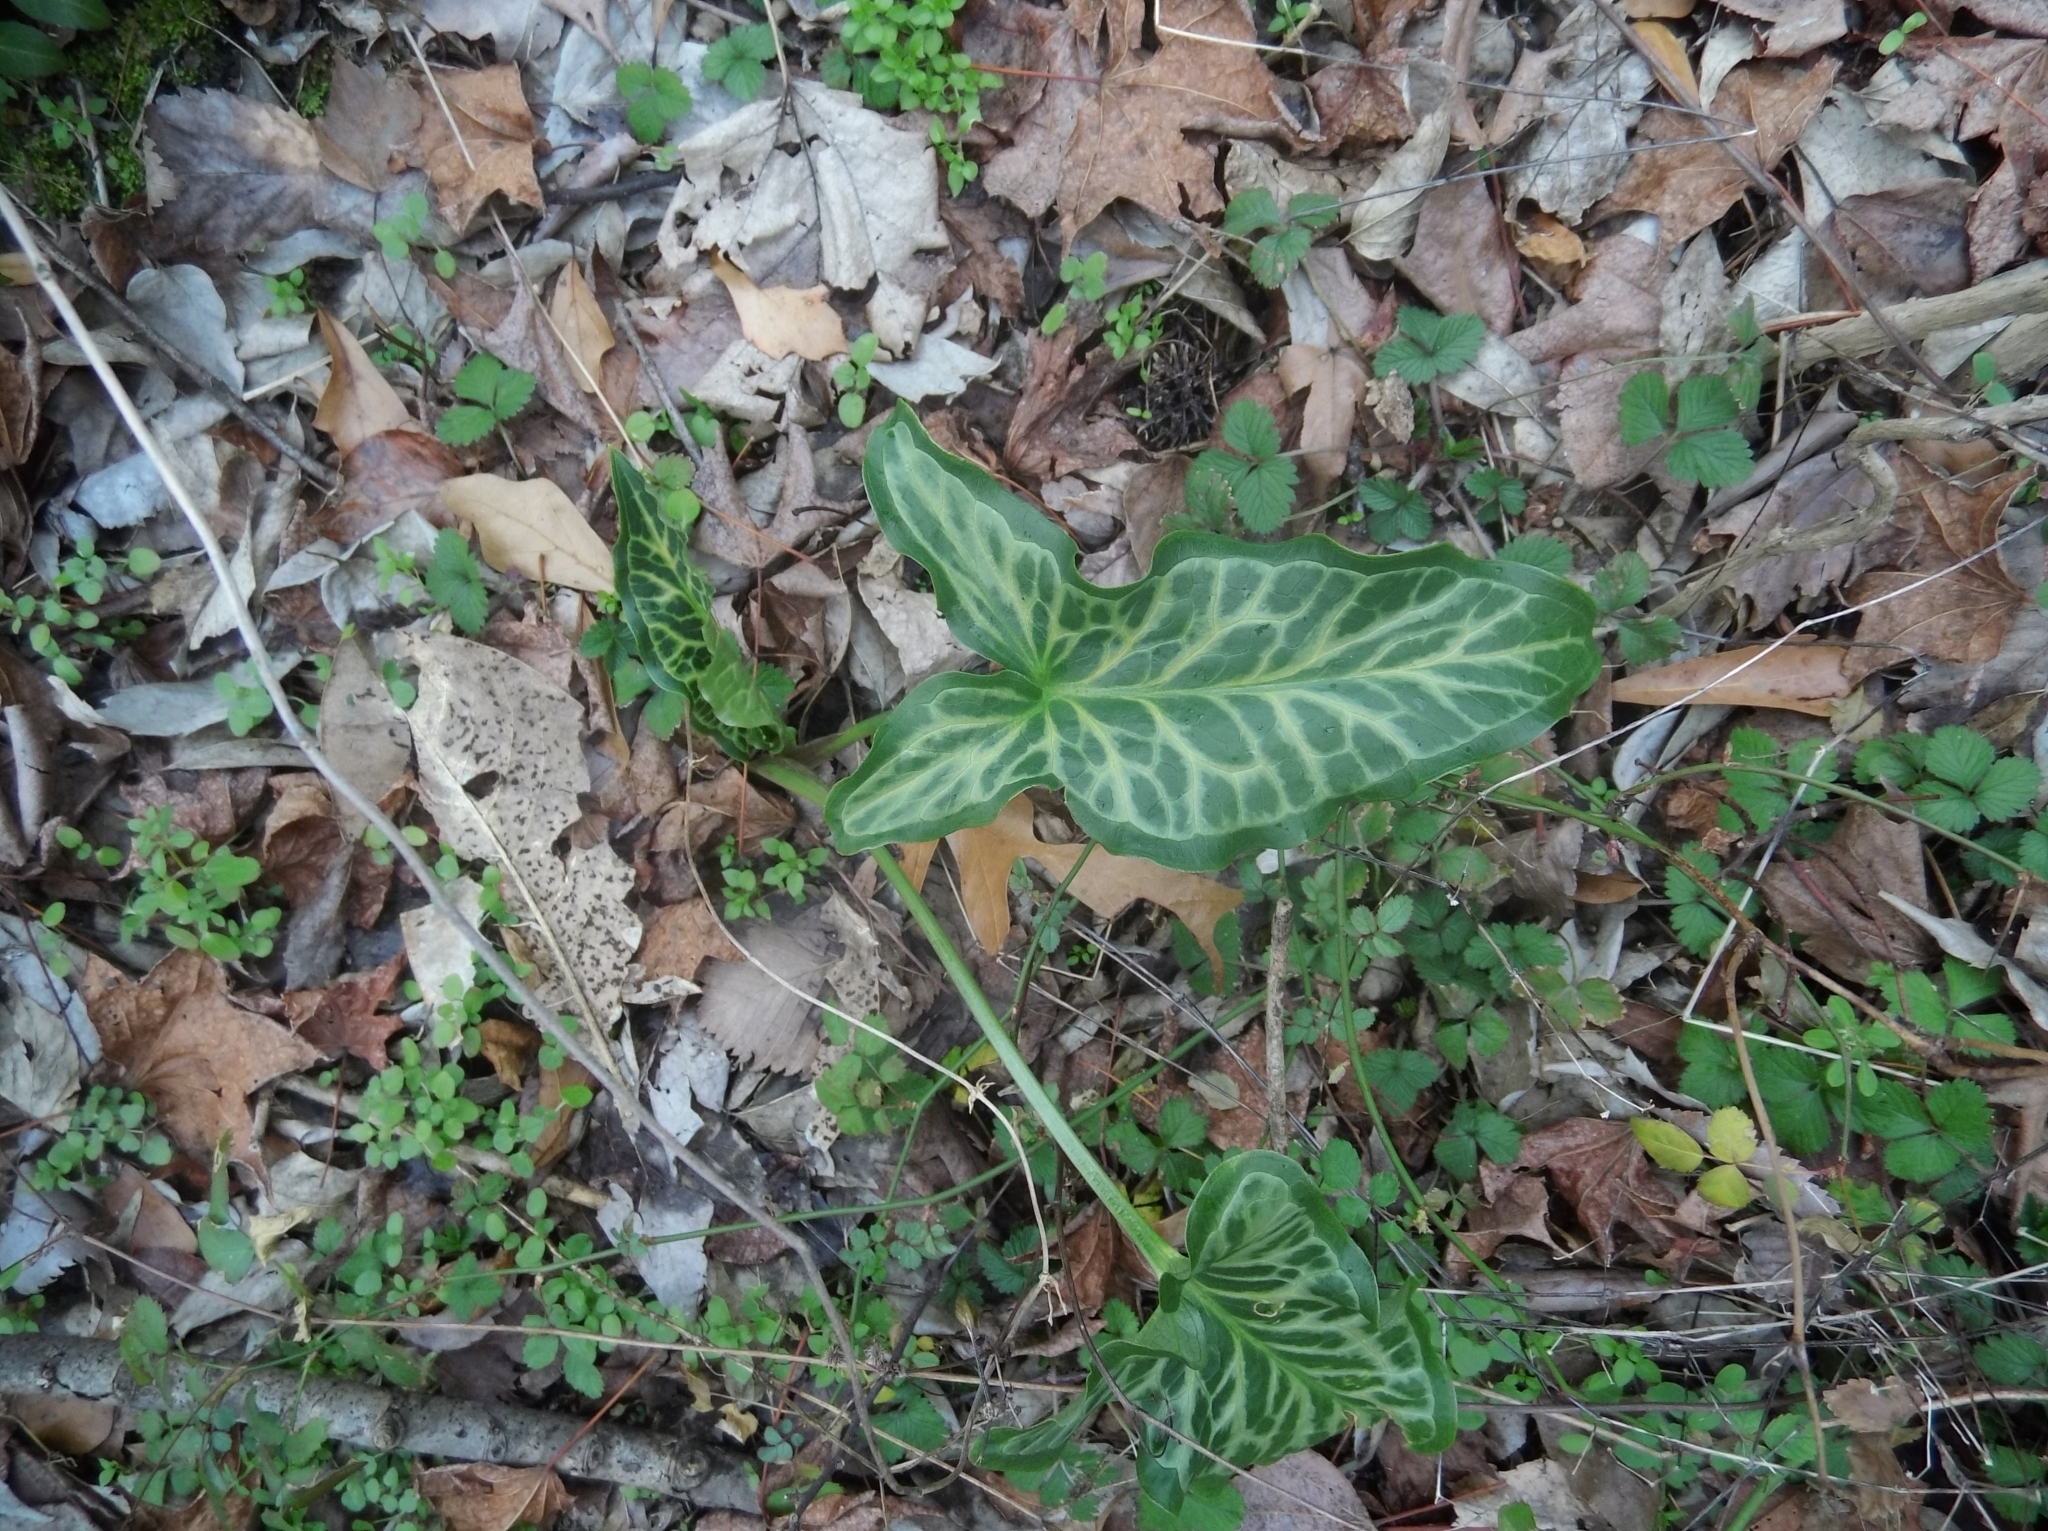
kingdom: Plantae
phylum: Tracheophyta
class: Liliopsida
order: Alismatales
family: Araceae
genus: Arum
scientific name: Arum italicum
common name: Italian lords-and-ladies
